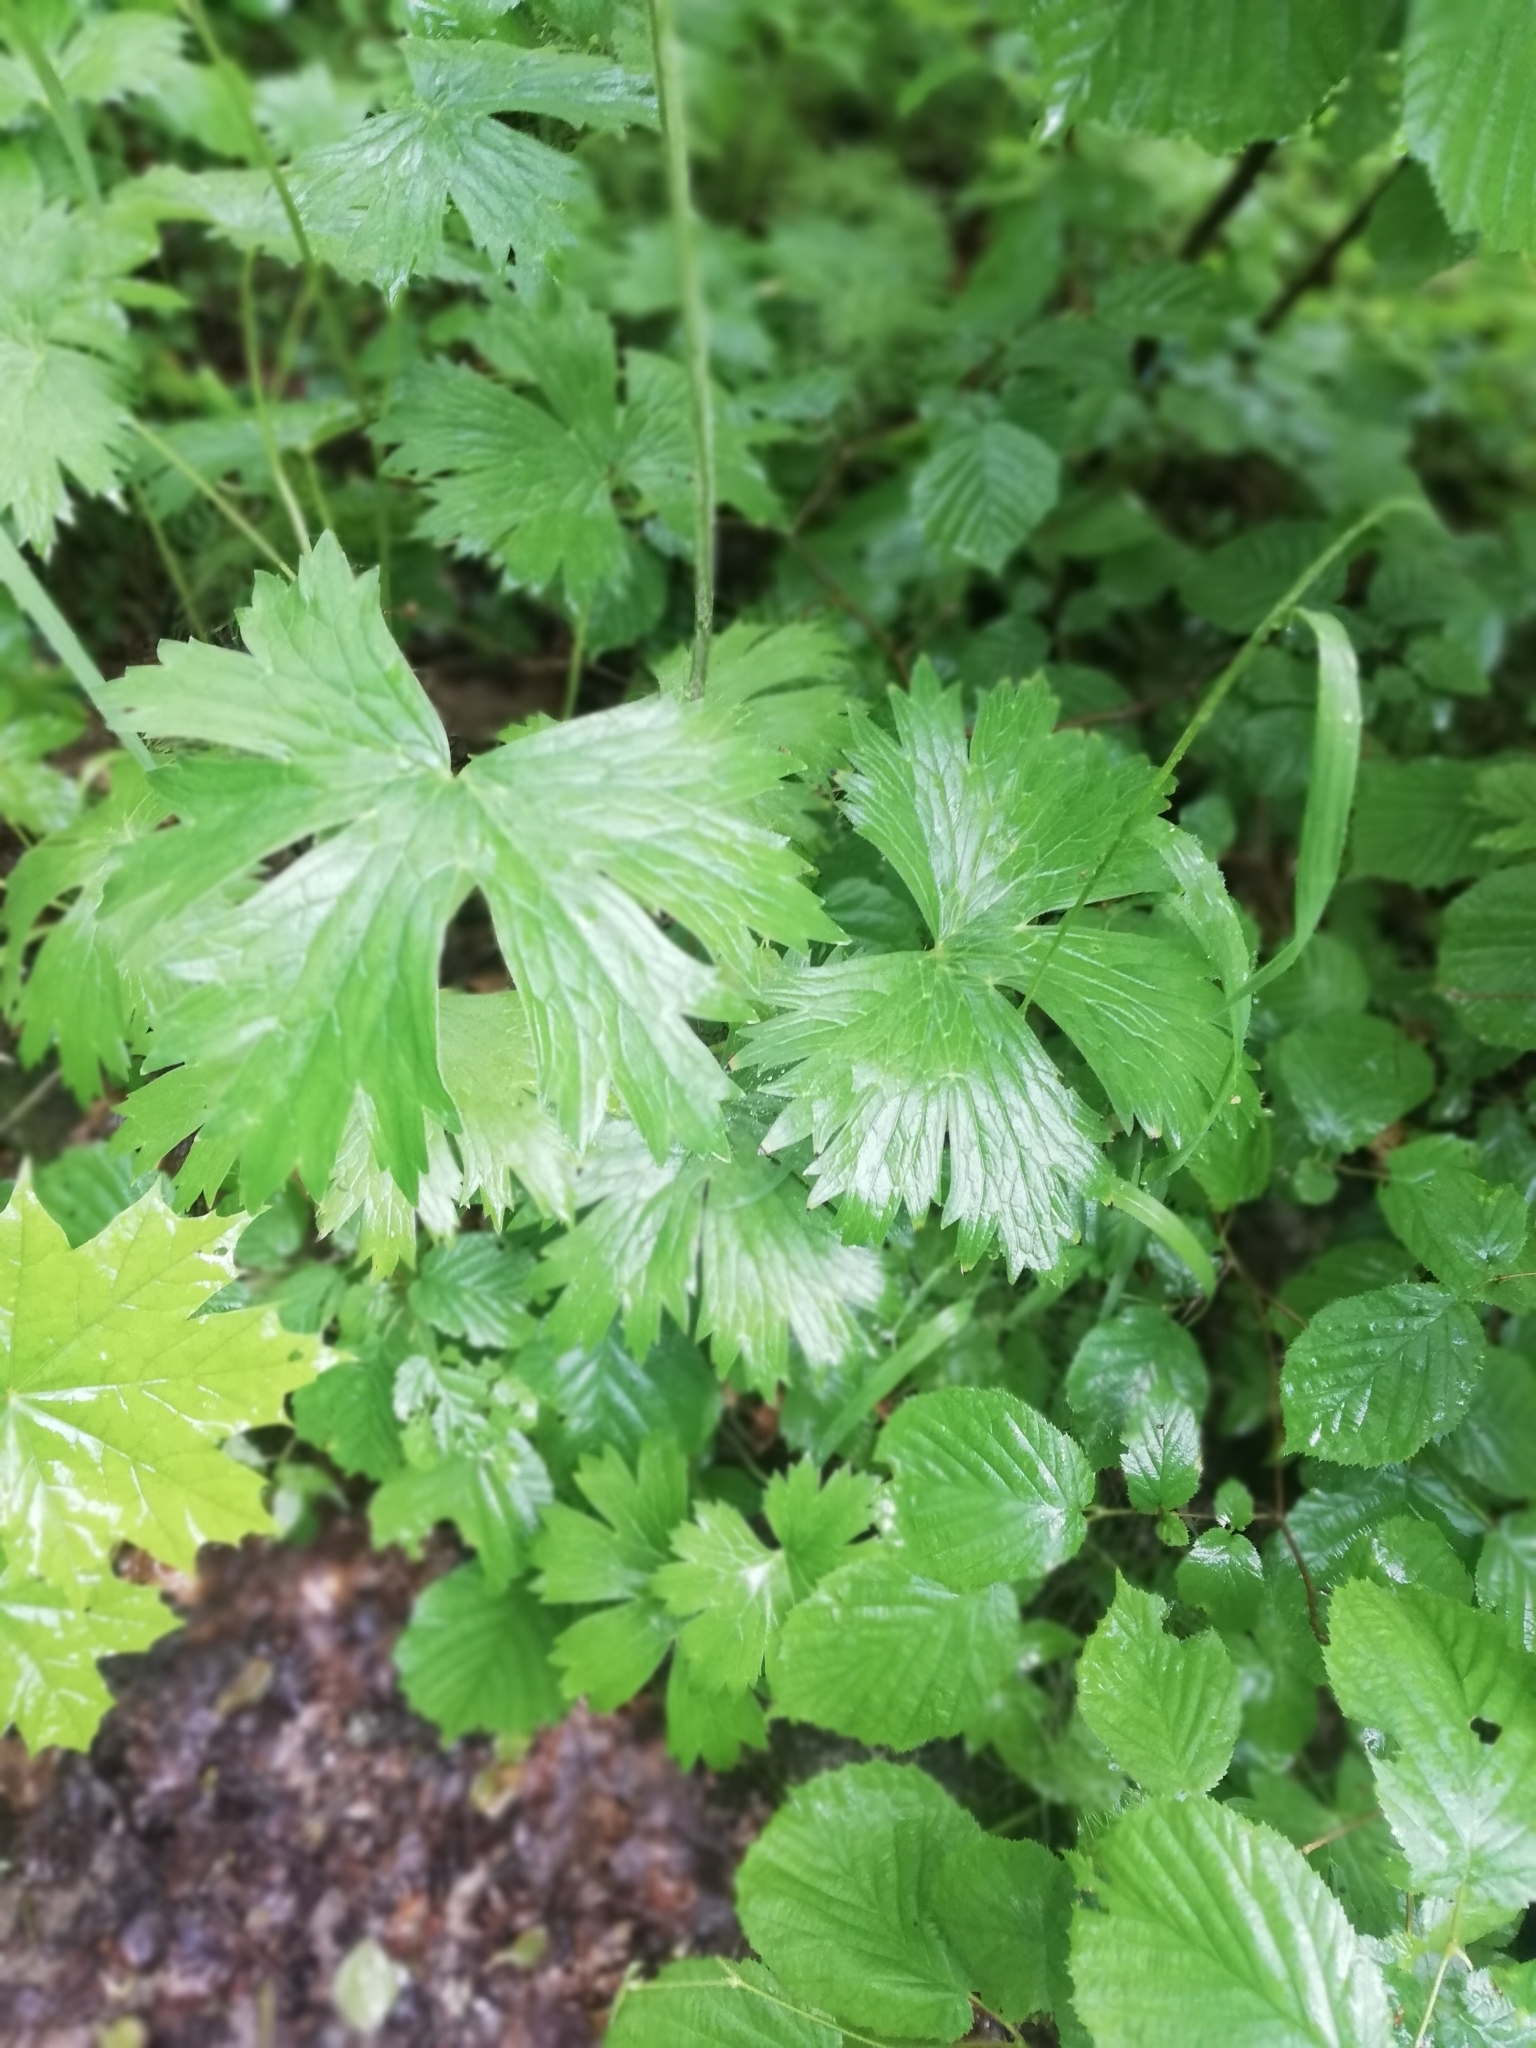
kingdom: Plantae
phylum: Tracheophyta
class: Magnoliopsida
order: Ranunculales
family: Ranunculaceae
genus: Aconitum
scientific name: Aconitum lasiostomum
